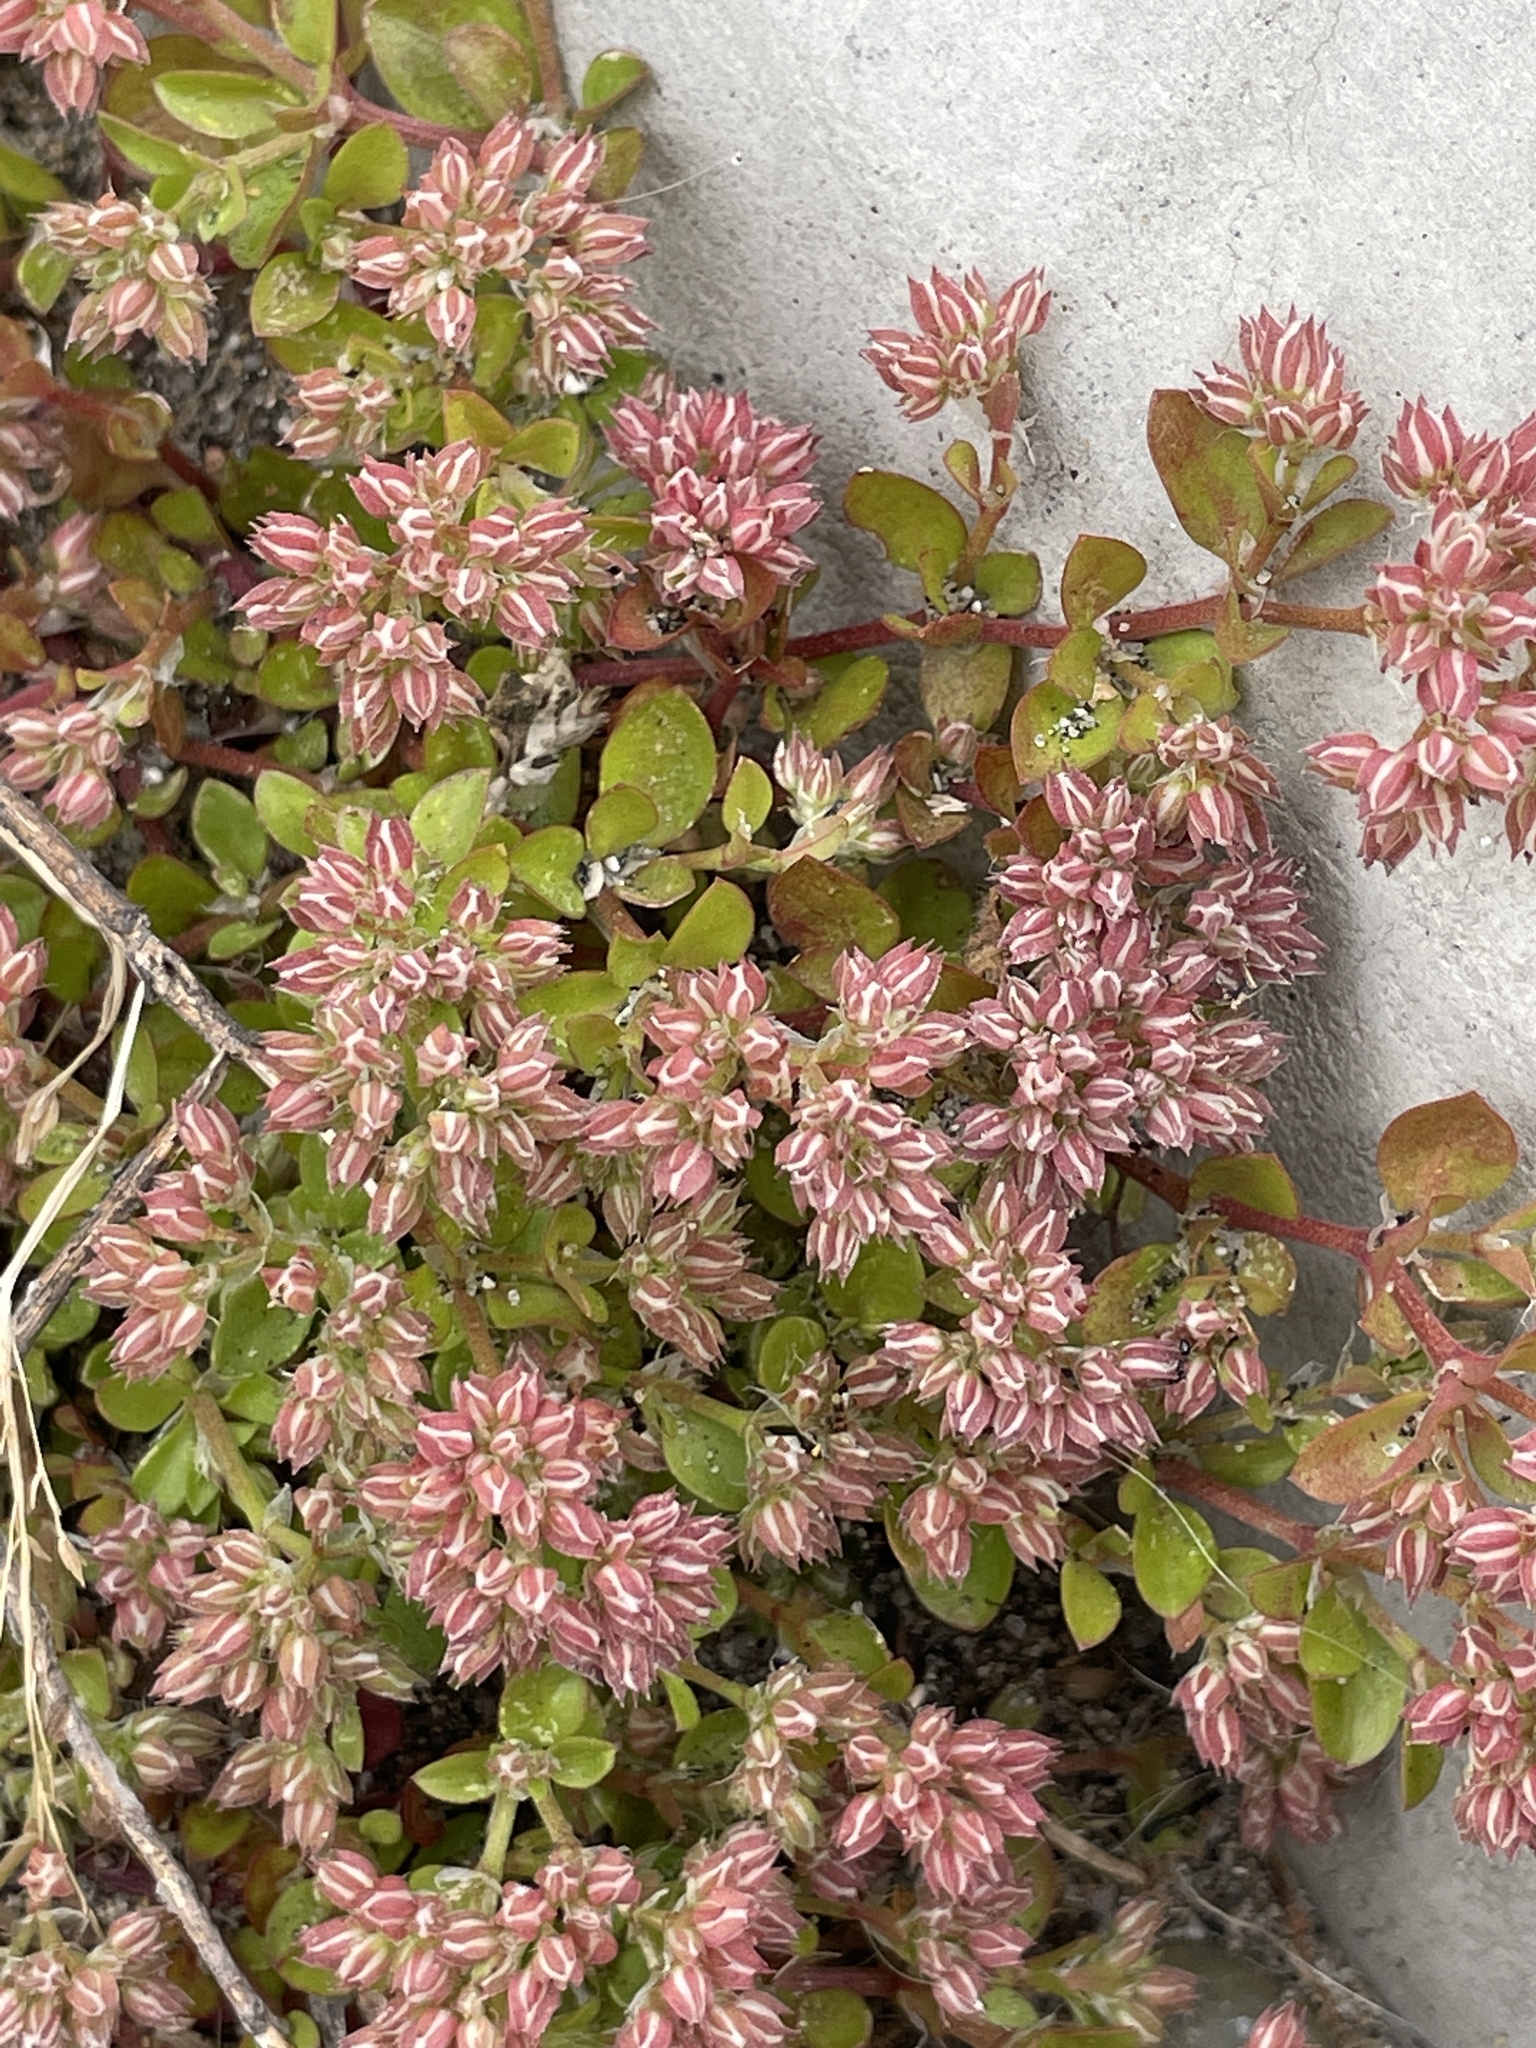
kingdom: Plantae
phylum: Tracheophyta
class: Magnoliopsida
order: Caryophyllales
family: Caryophyllaceae
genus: Polycarpon
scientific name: Polycarpon tetraphyllum
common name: Four-leaved all-seed
